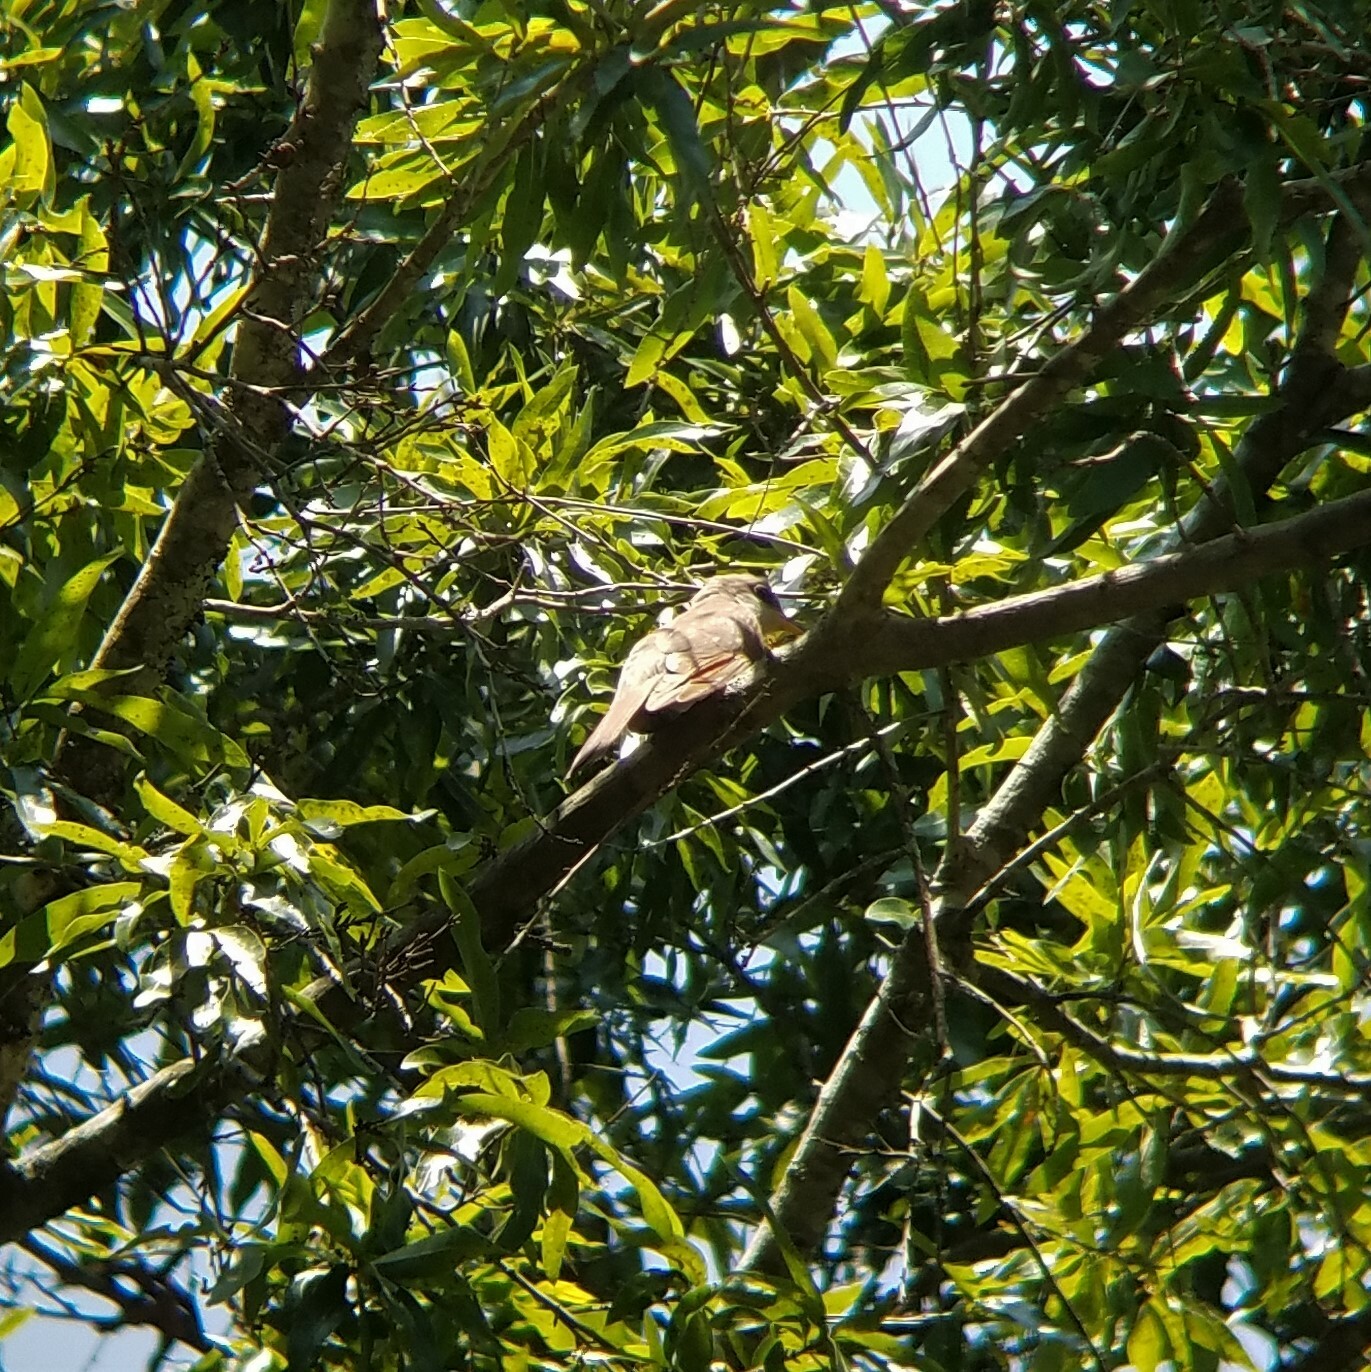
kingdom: Animalia
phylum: Chordata
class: Aves
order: Cuculiformes
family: Cuculidae
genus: Coccyzus
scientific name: Coccyzus americanus
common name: Yellow-billed cuckoo
